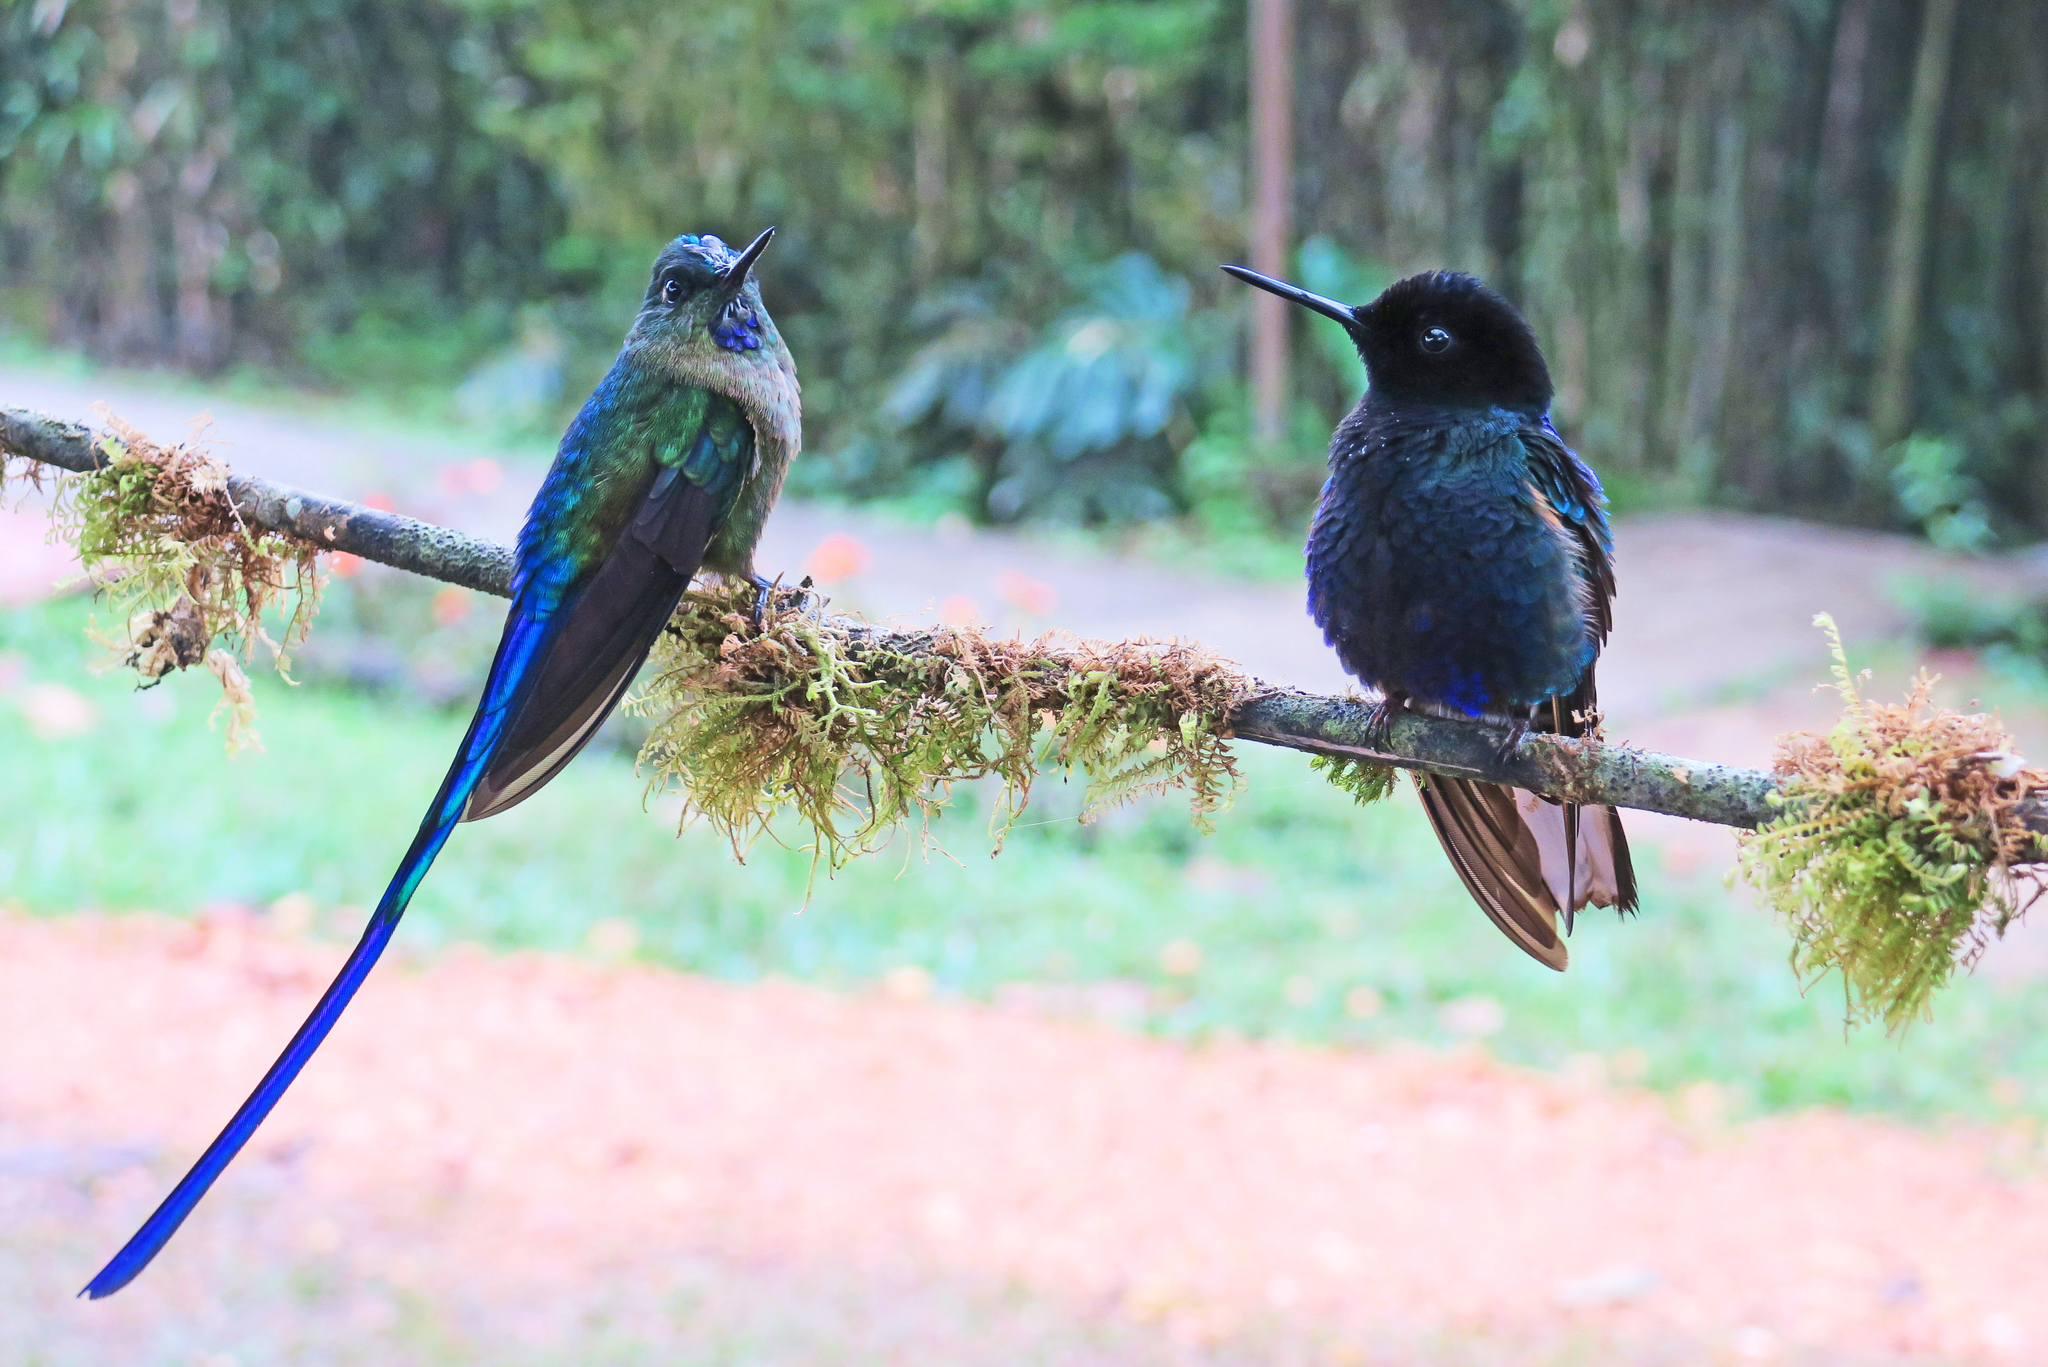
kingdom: Animalia
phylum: Chordata
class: Aves
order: Apodiformes
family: Trochilidae
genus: Aglaiocercus
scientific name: Aglaiocercus coelestis
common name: Violet-tailed sylph
